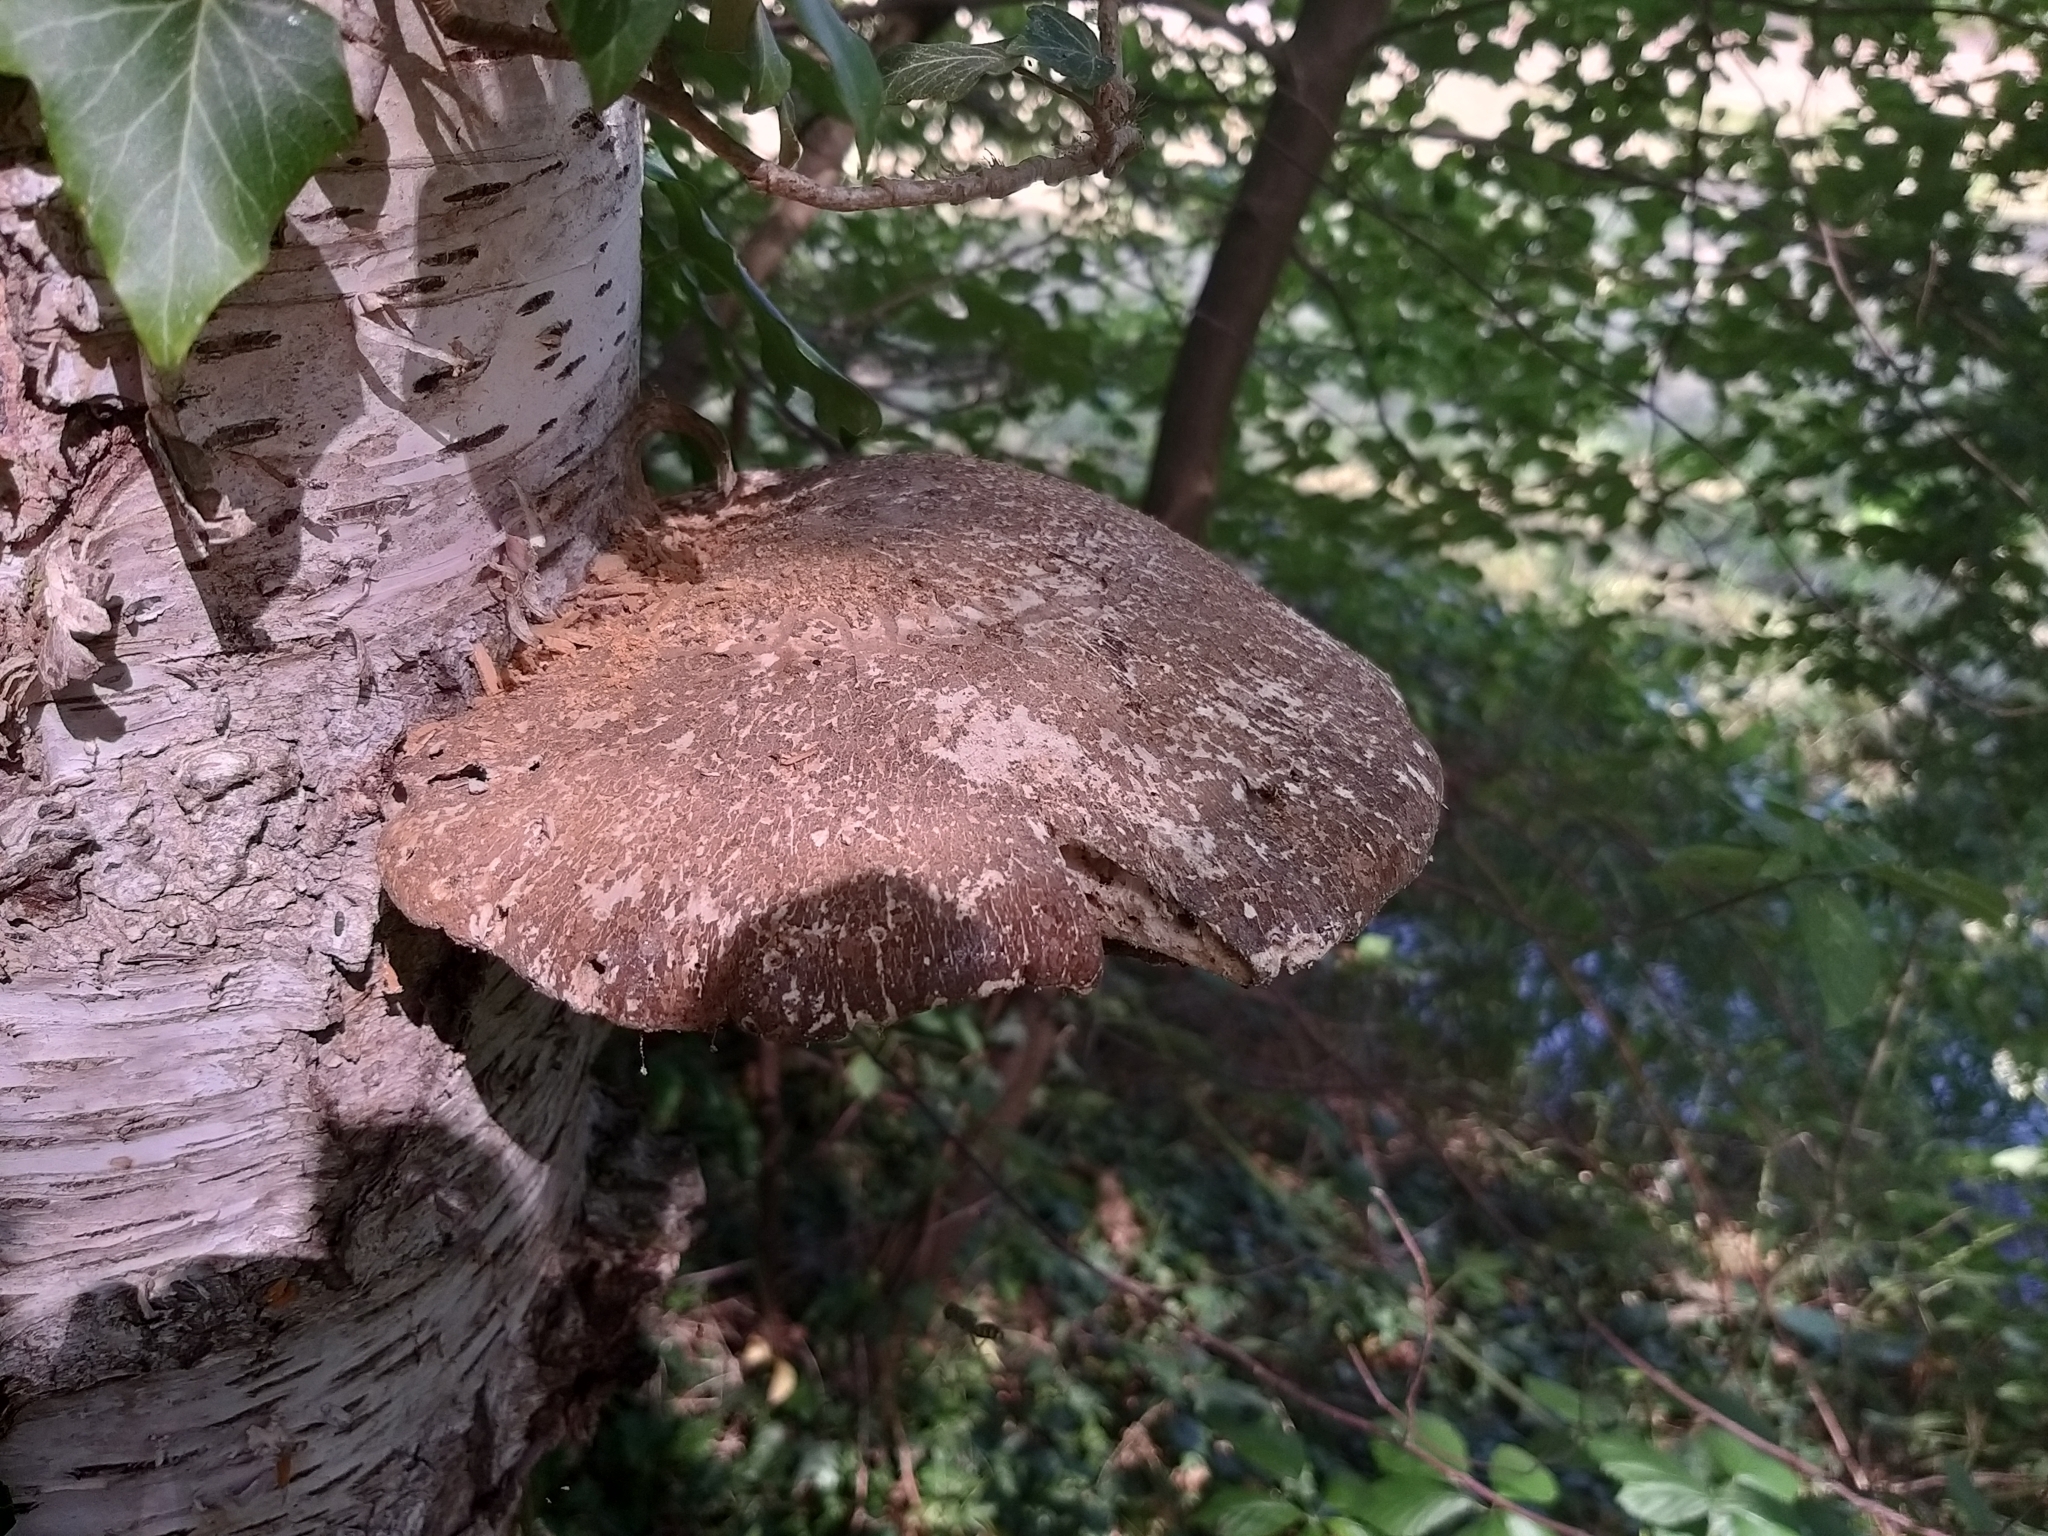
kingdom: Fungi
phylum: Basidiomycota
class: Agaricomycetes
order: Polyporales
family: Fomitopsidaceae
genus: Fomitopsis
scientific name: Fomitopsis betulina
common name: Birch polypore
